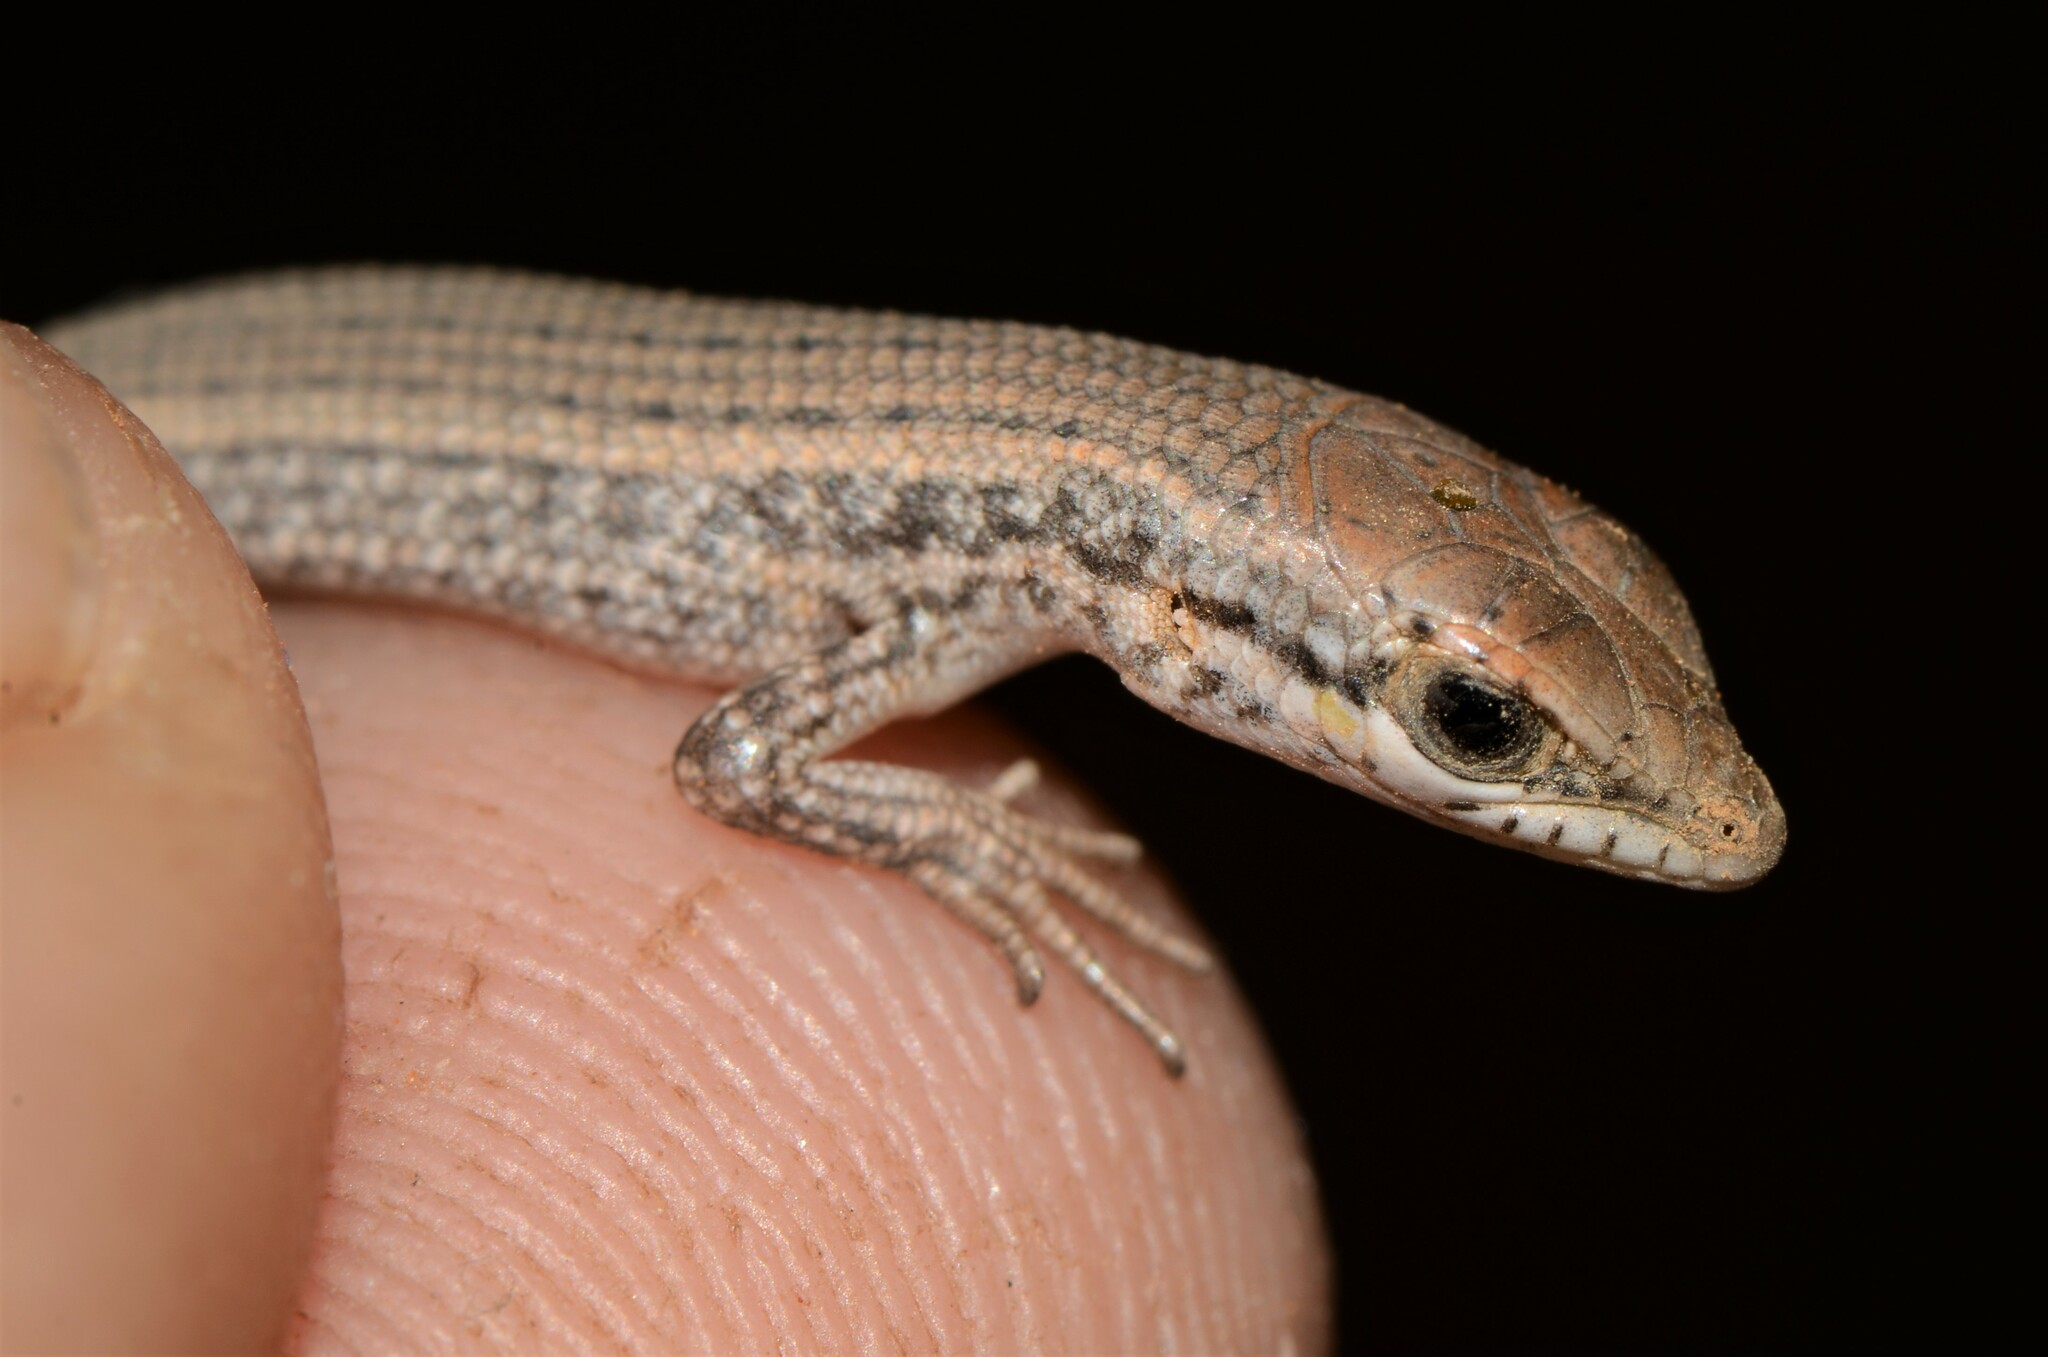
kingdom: Animalia
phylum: Chordata
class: Squamata
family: Scincidae
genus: Trachylepis
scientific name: Trachylepis variegata
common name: Variegated skink
